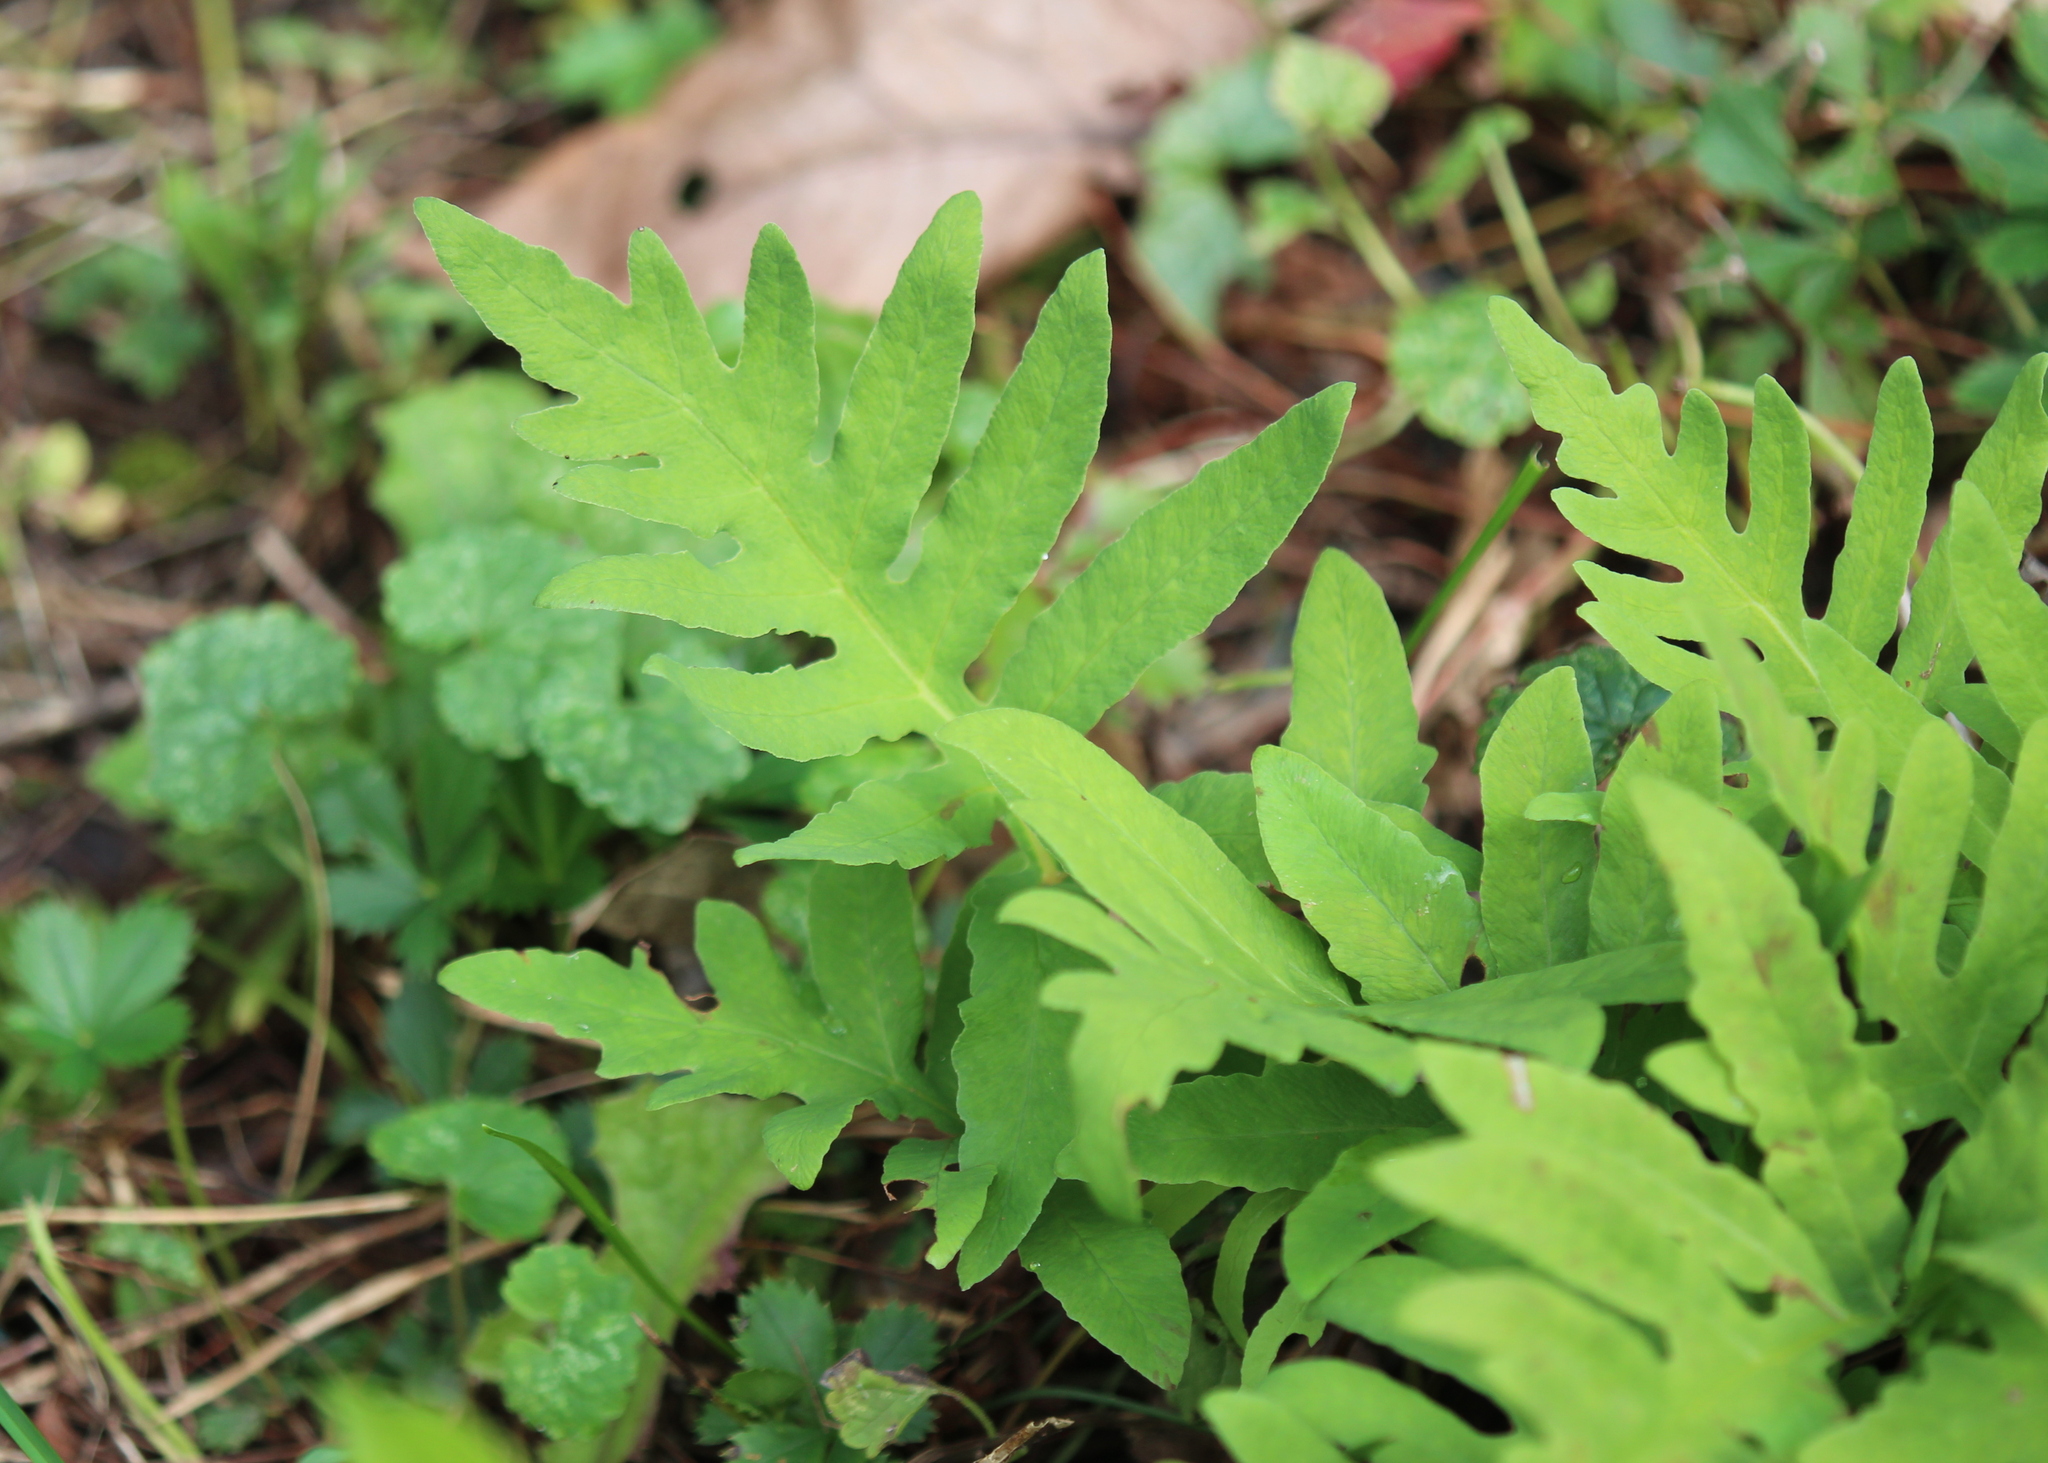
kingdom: Plantae
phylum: Tracheophyta
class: Polypodiopsida
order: Polypodiales
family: Onocleaceae
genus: Onoclea
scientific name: Onoclea sensibilis
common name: Sensitive fern
